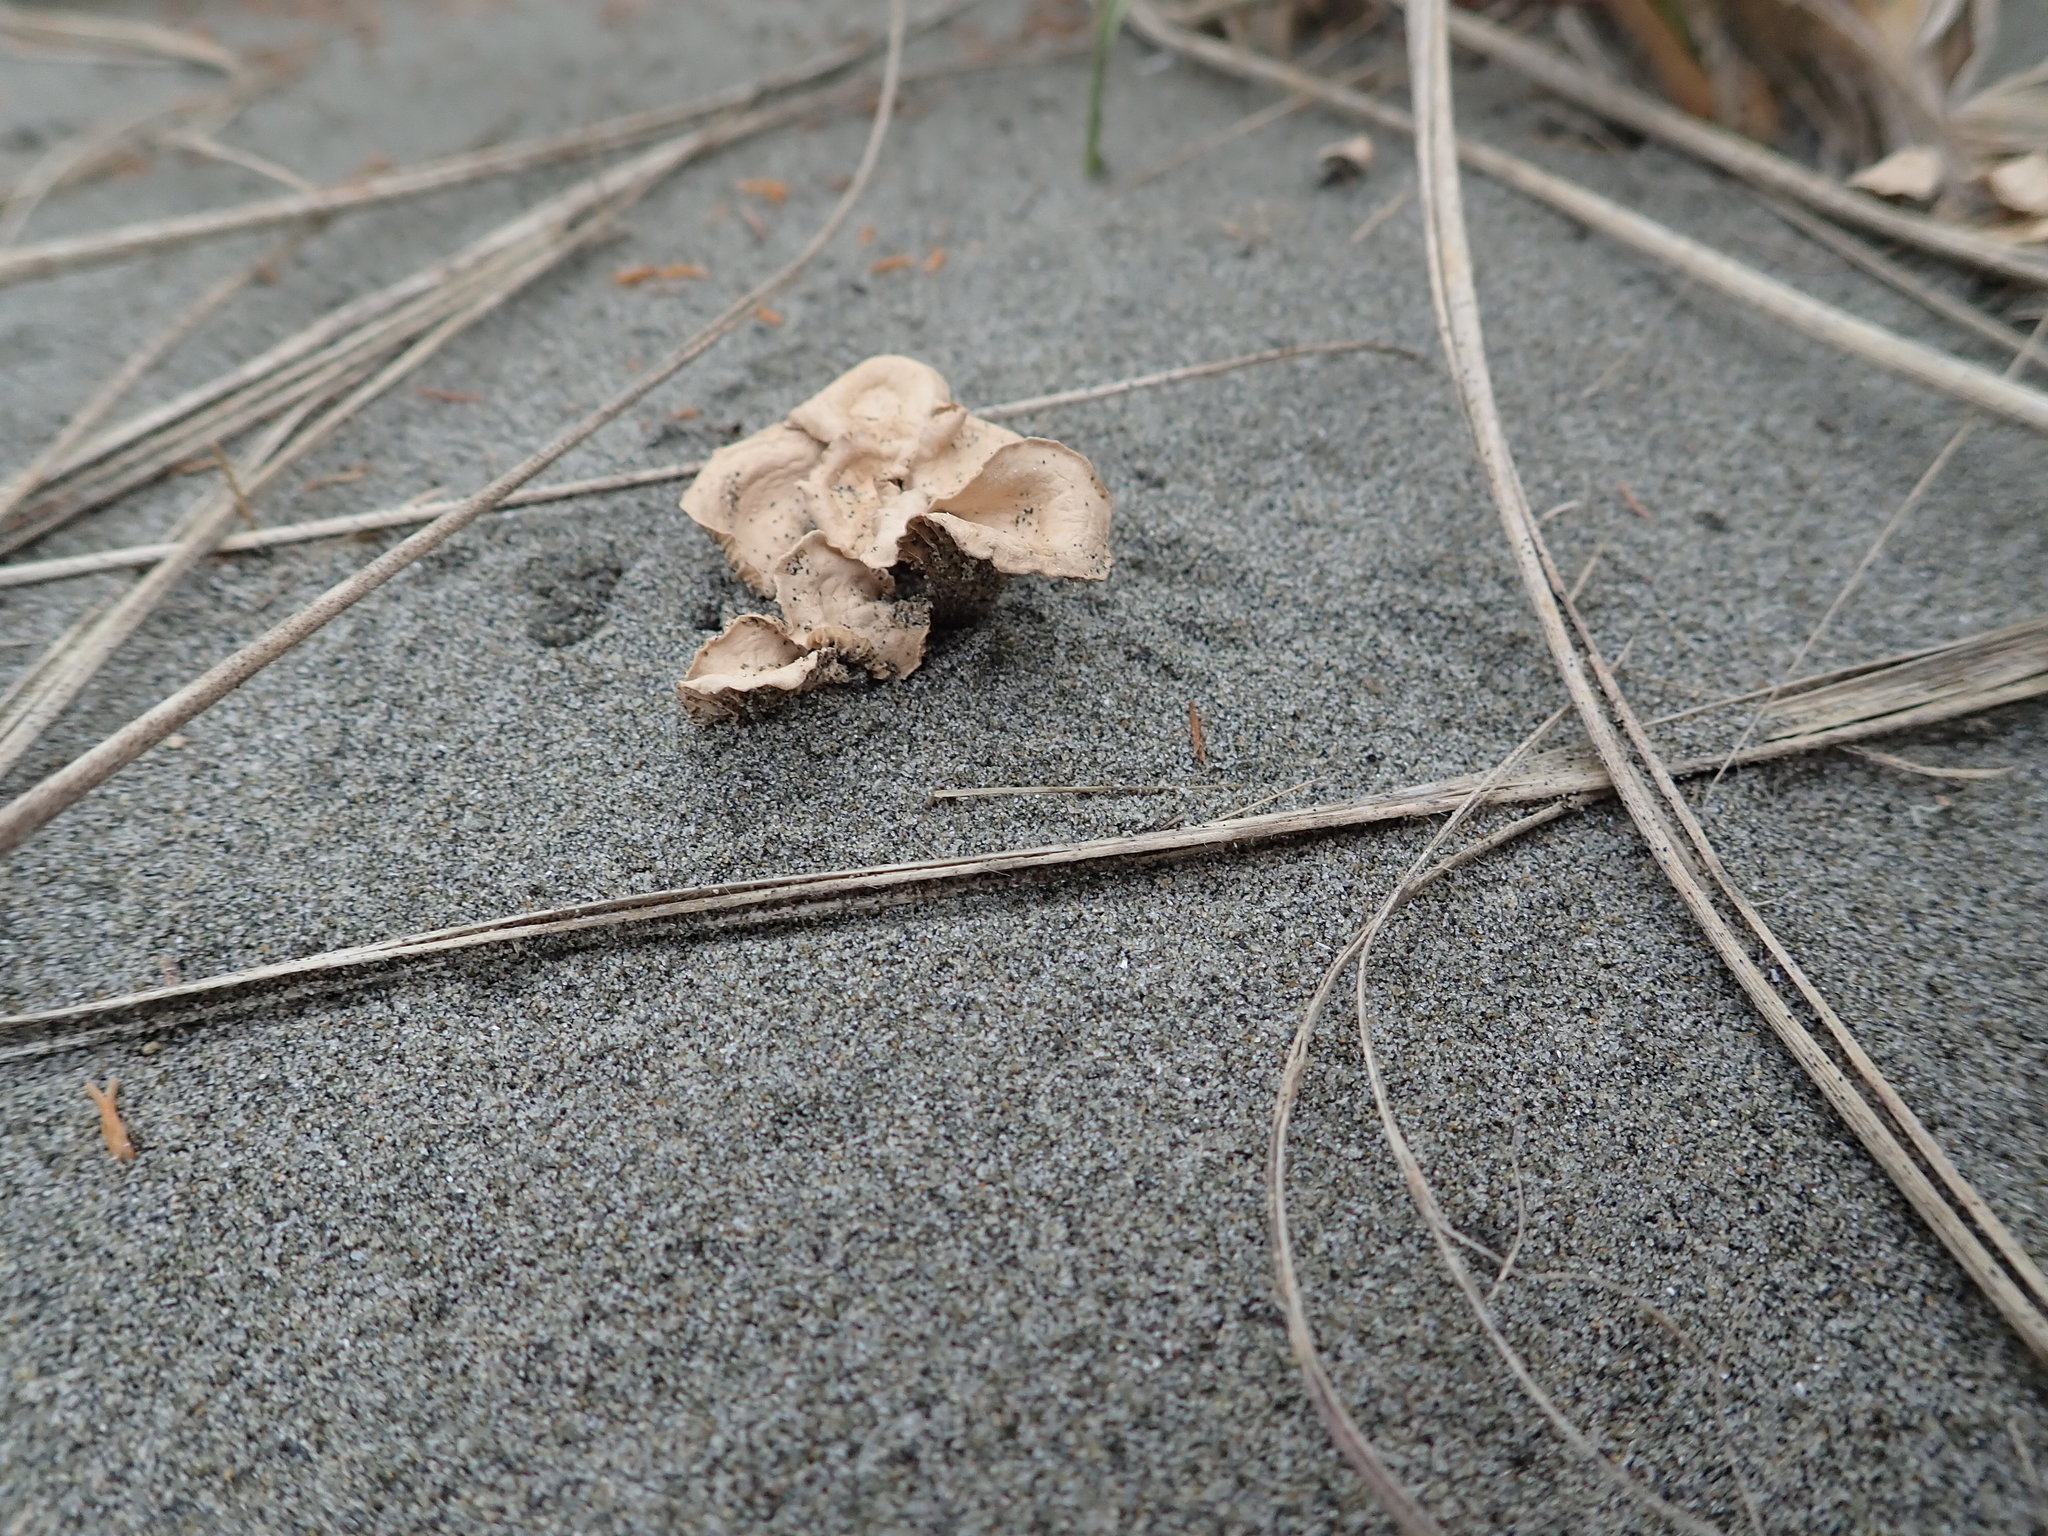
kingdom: Fungi
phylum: Basidiomycota
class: Agaricomycetes
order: Agaricales
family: Marasmiaceae
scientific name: Marasmiaceae
